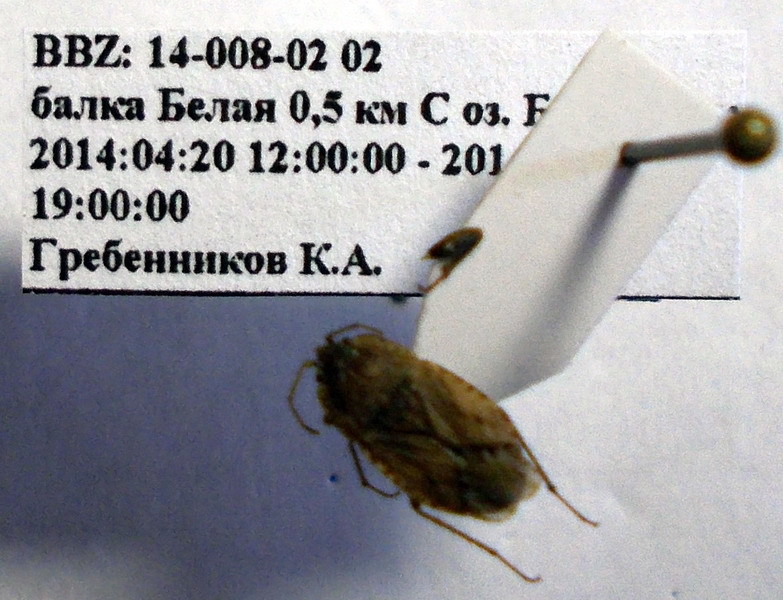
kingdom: Animalia
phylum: Arthropoda
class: Insecta
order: Hemiptera
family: Rhyparochromidae
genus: Emblethis
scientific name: Emblethis ciliatus
